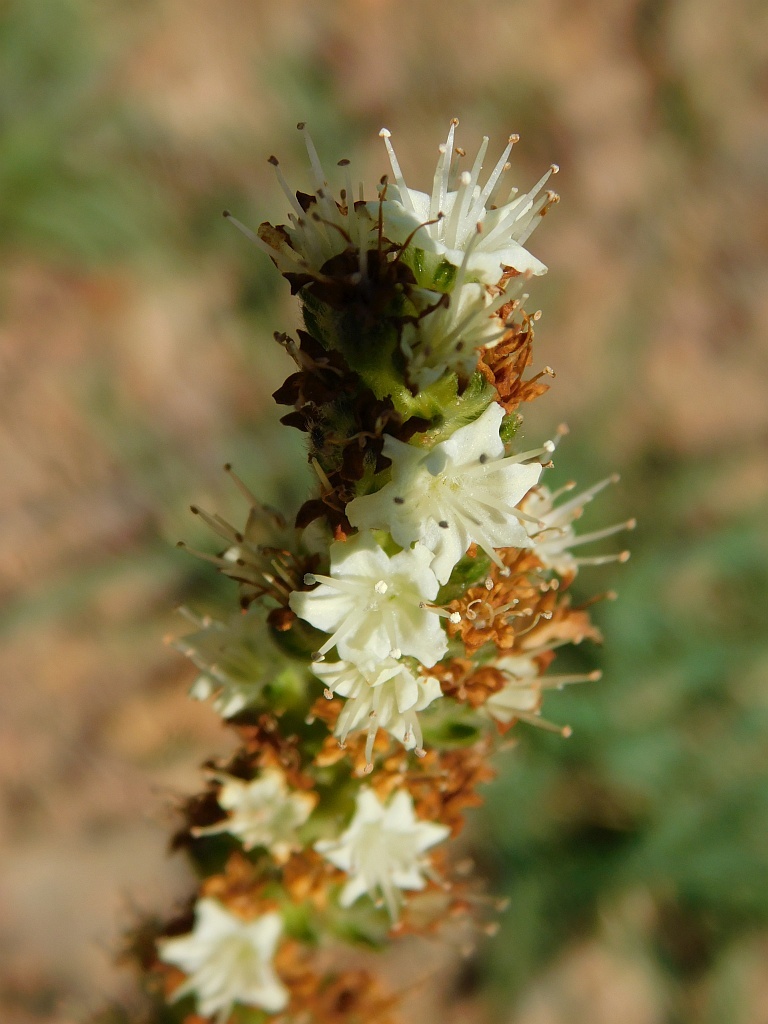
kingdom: Plantae
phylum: Tracheophyta
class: Magnoliopsida
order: Boraginales
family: Boraginaceae
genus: Lobostemon
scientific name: Lobostemon splendens
